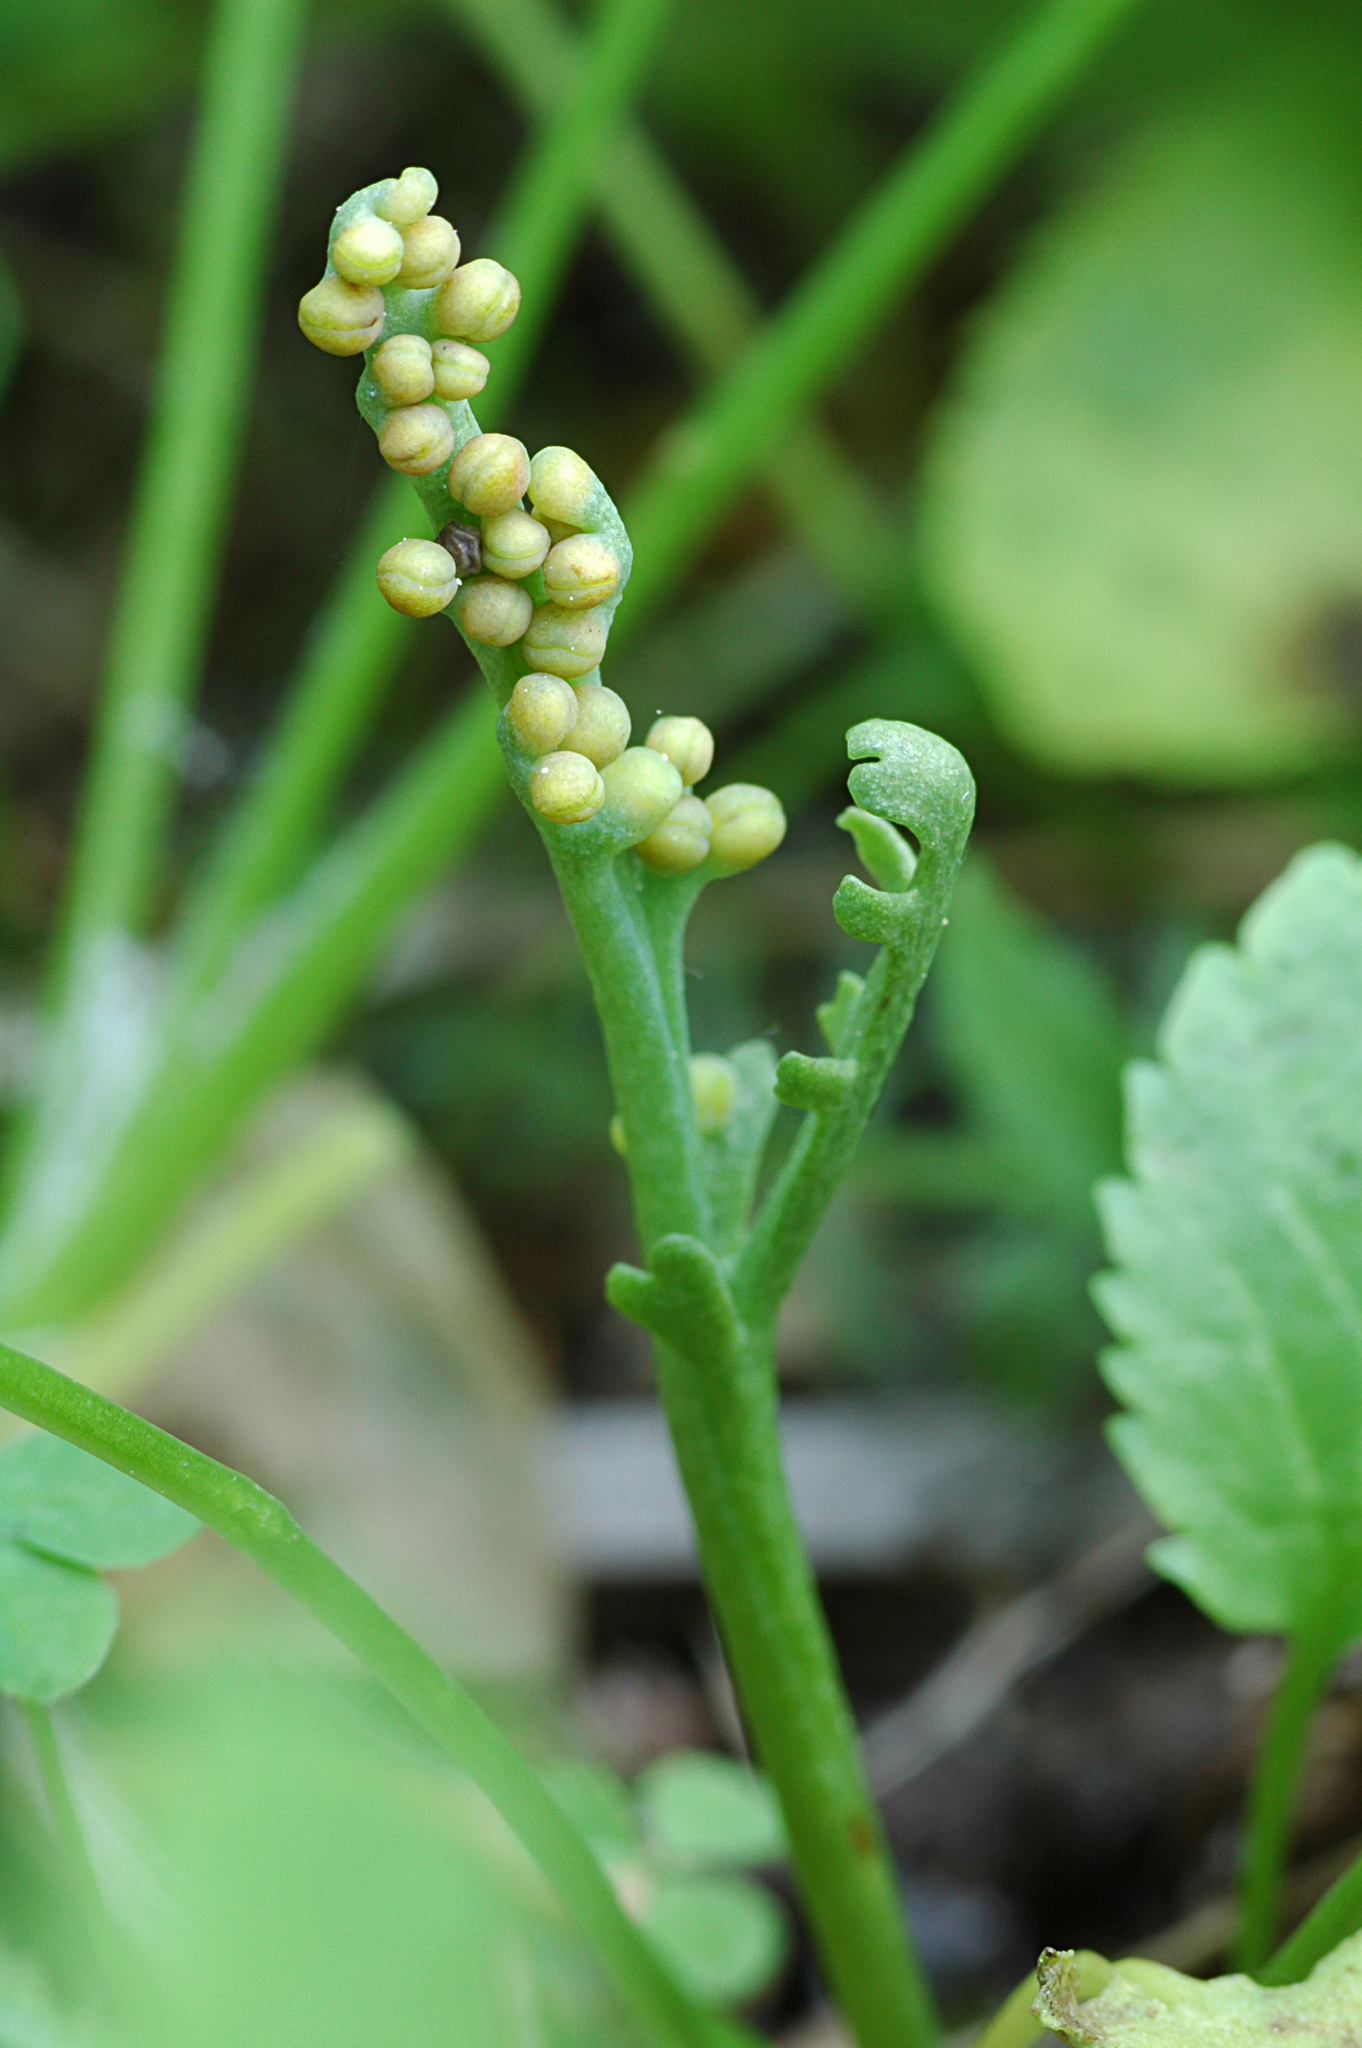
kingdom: Plantae
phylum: Tracheophyta
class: Polypodiopsida
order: Ophioglossales
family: Ophioglossaceae
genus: Botrychium
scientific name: Botrychium lineare
